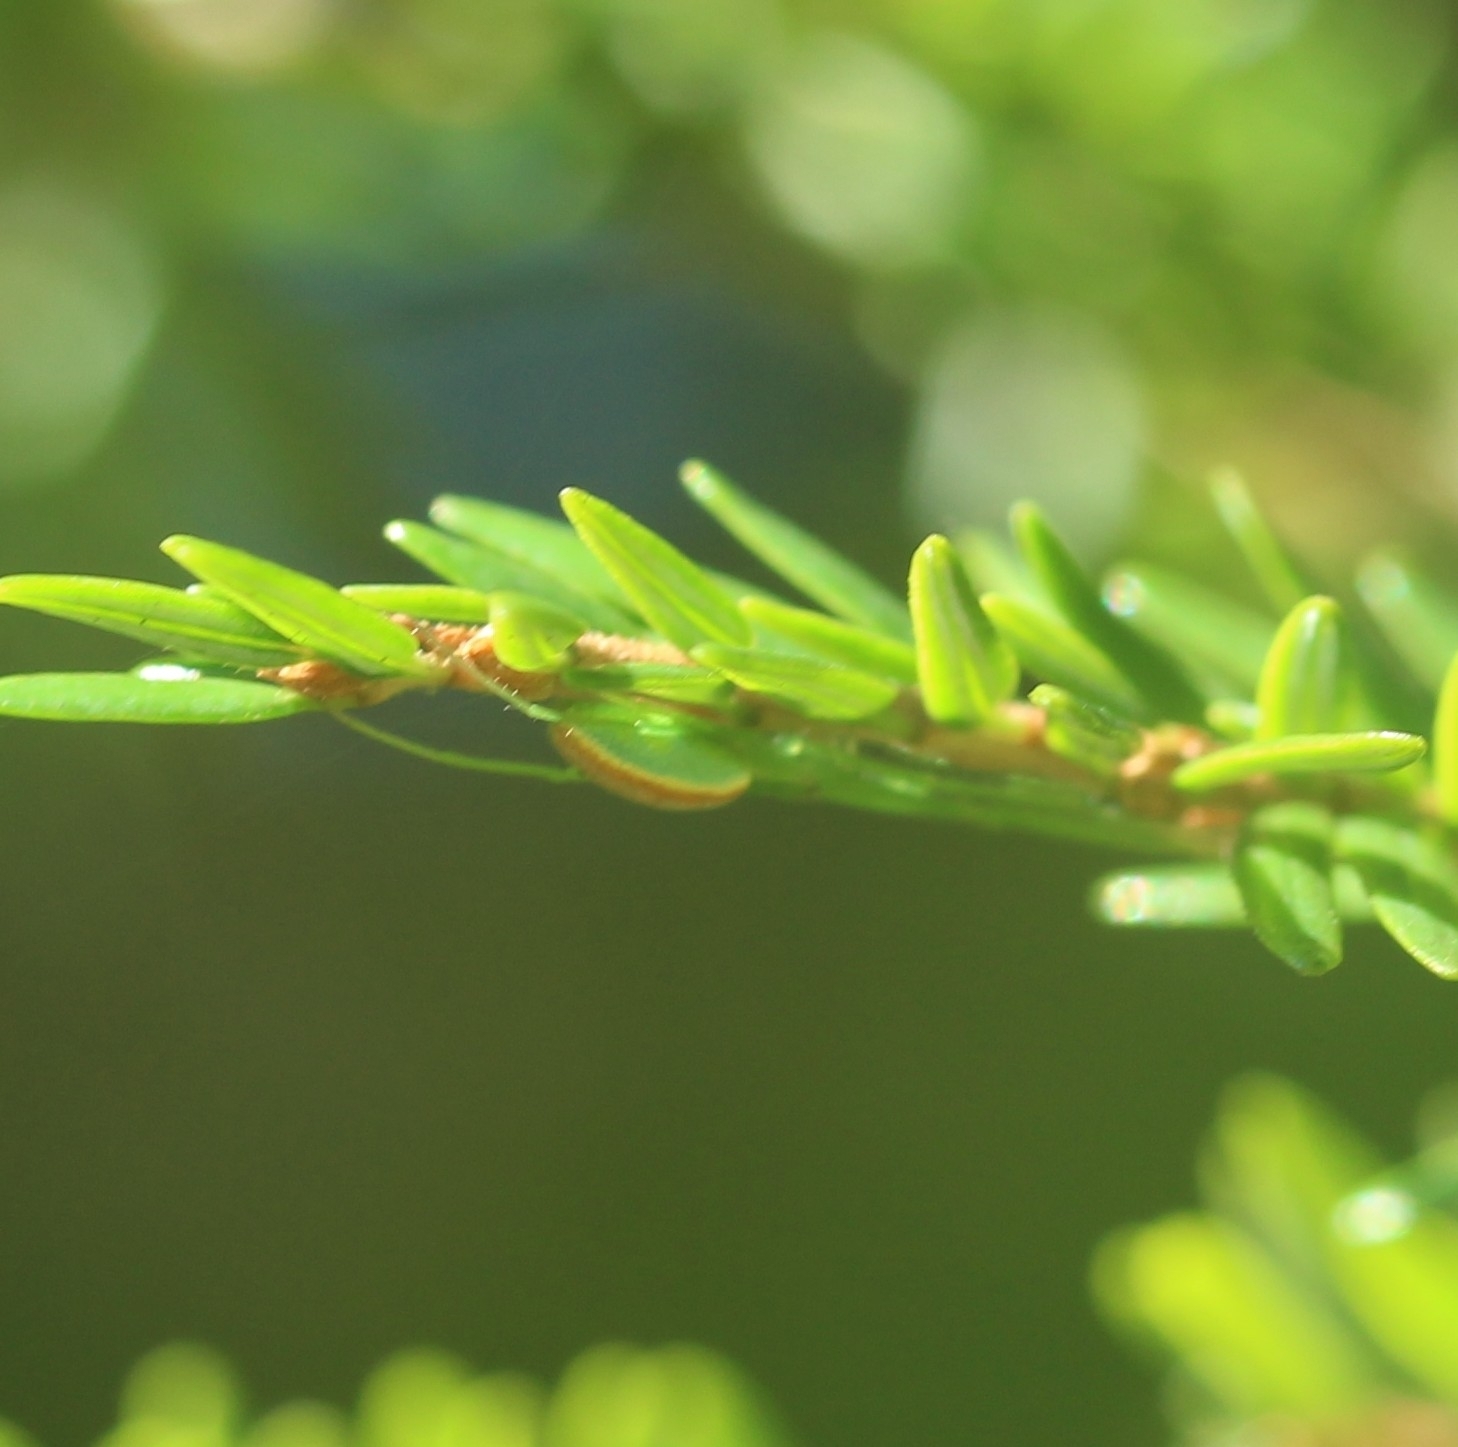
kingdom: Animalia
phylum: Arthropoda
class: Arachnida
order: Araneae
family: Tetragnathidae
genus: Tetragnatha
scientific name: Tetragnatha viridis
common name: Green long-jawed spider
